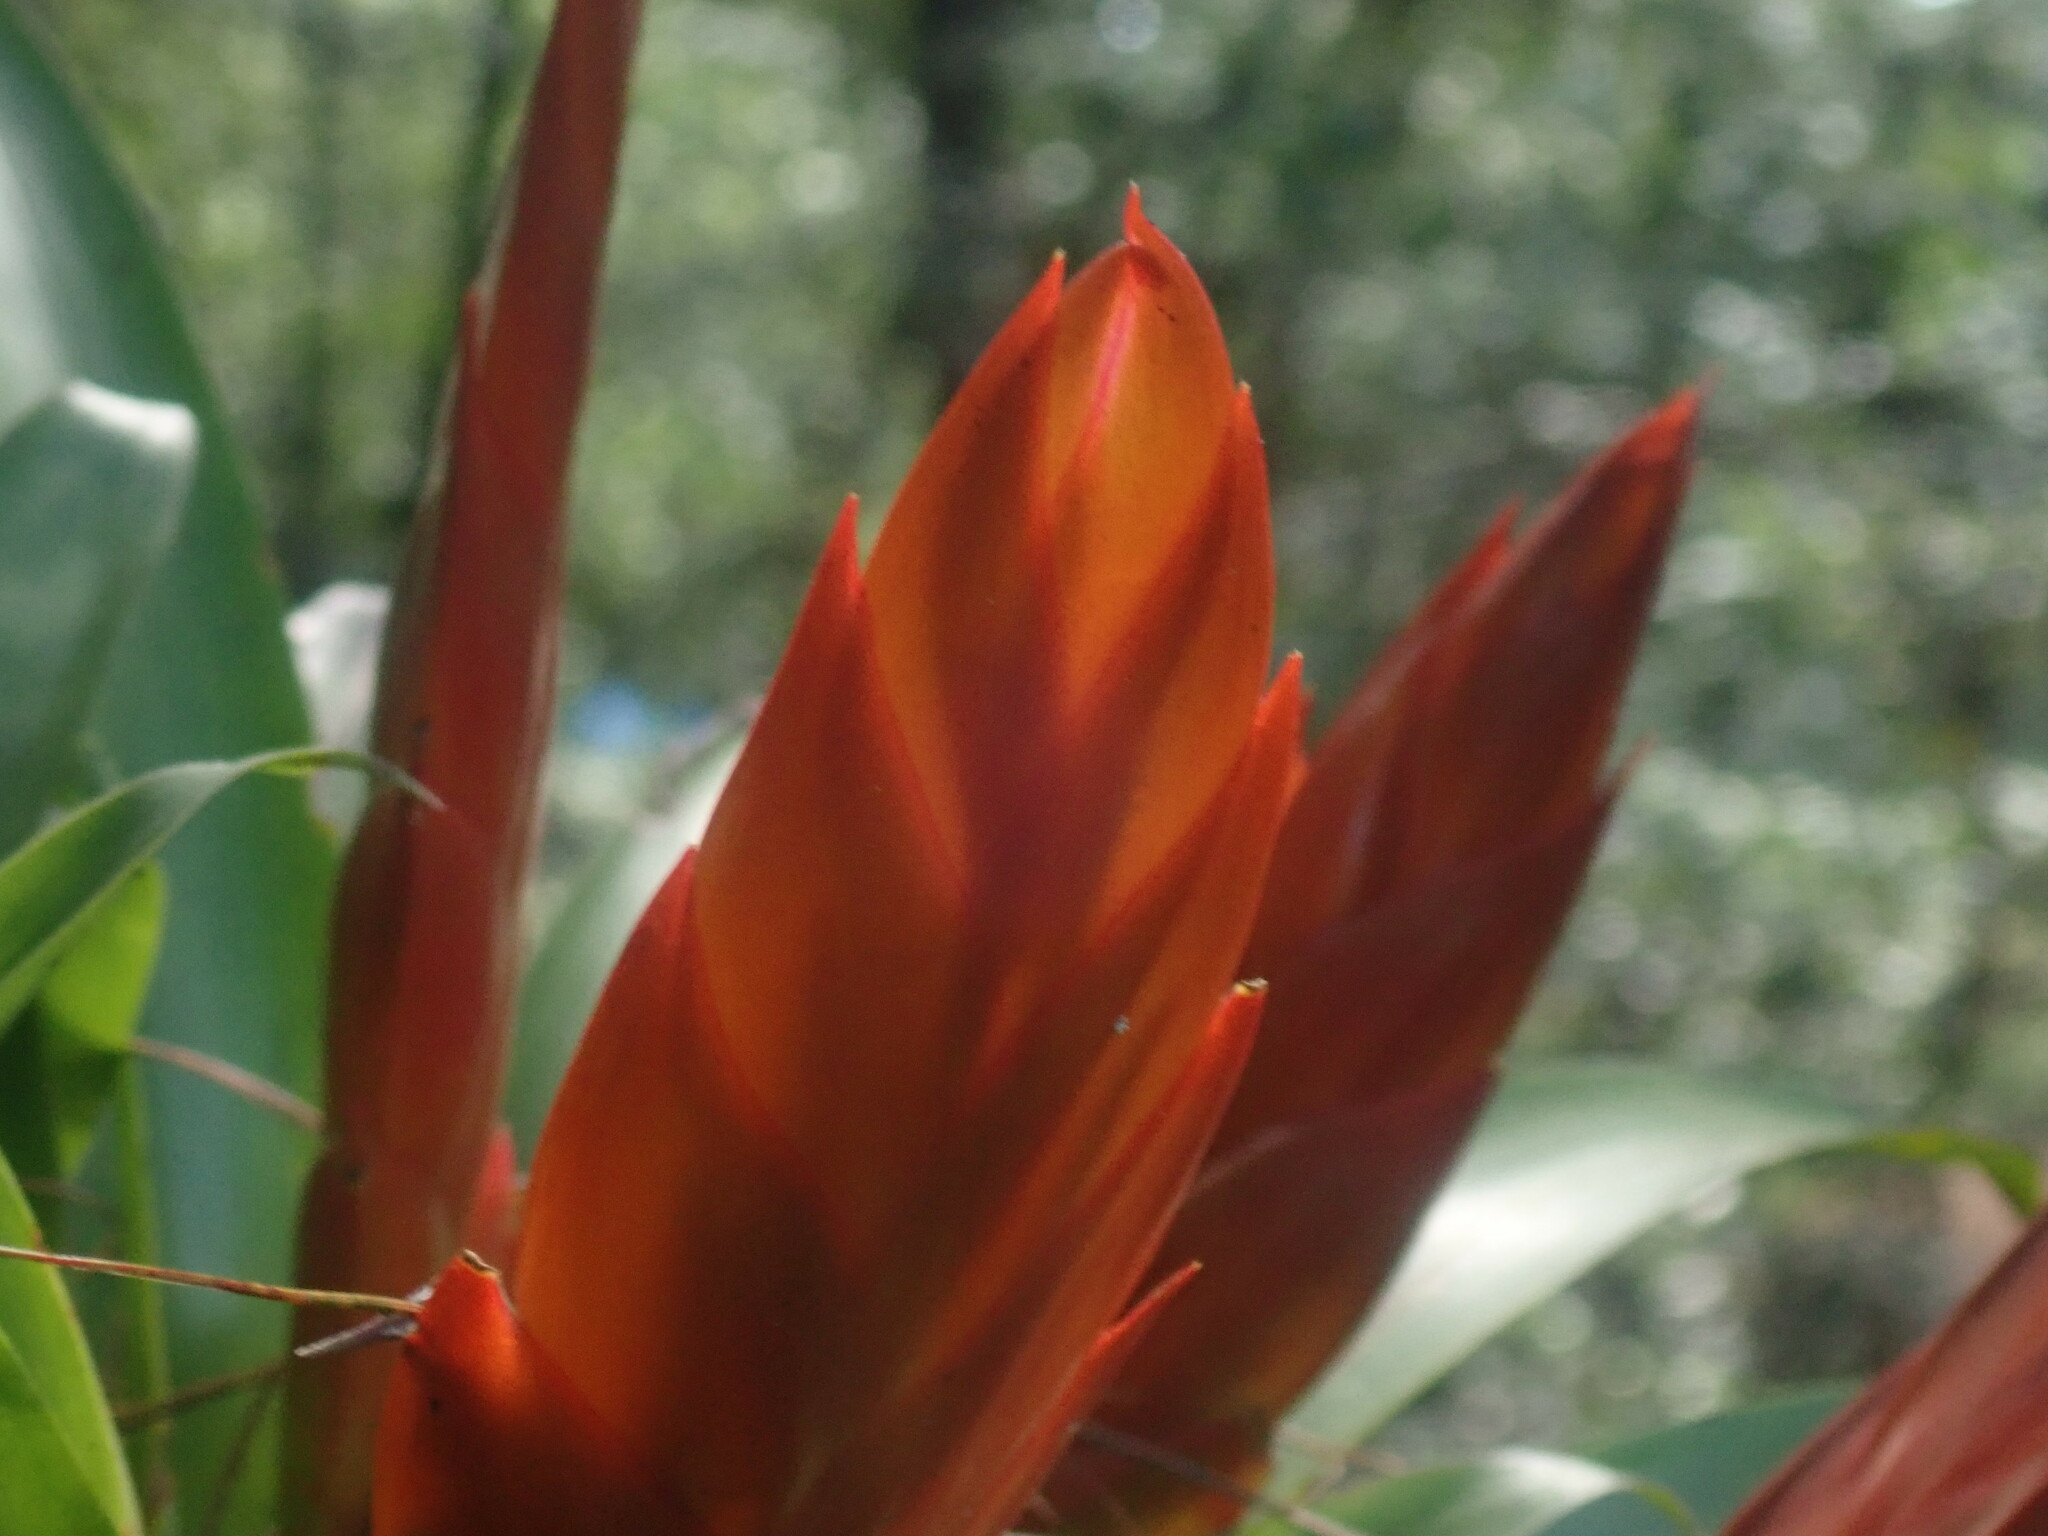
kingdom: Plantae
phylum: Tracheophyta
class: Liliopsida
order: Poales
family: Bromeliaceae
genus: Tillandsia
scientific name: Tillandsia multicaulis
